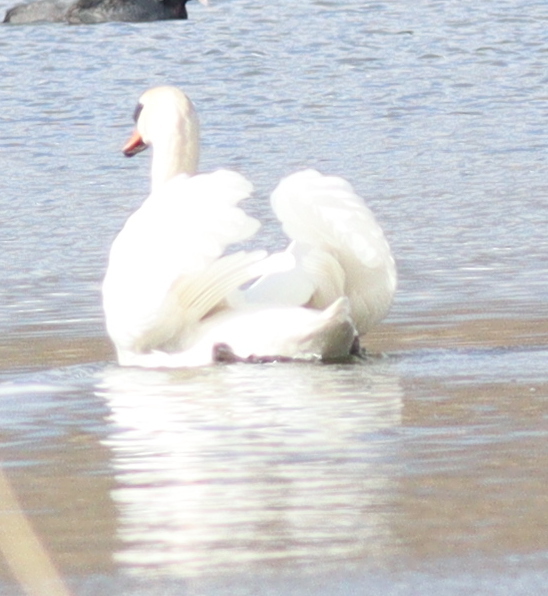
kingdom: Animalia
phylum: Chordata
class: Aves
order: Anseriformes
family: Anatidae
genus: Cygnus
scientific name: Cygnus olor
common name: Mute swan
